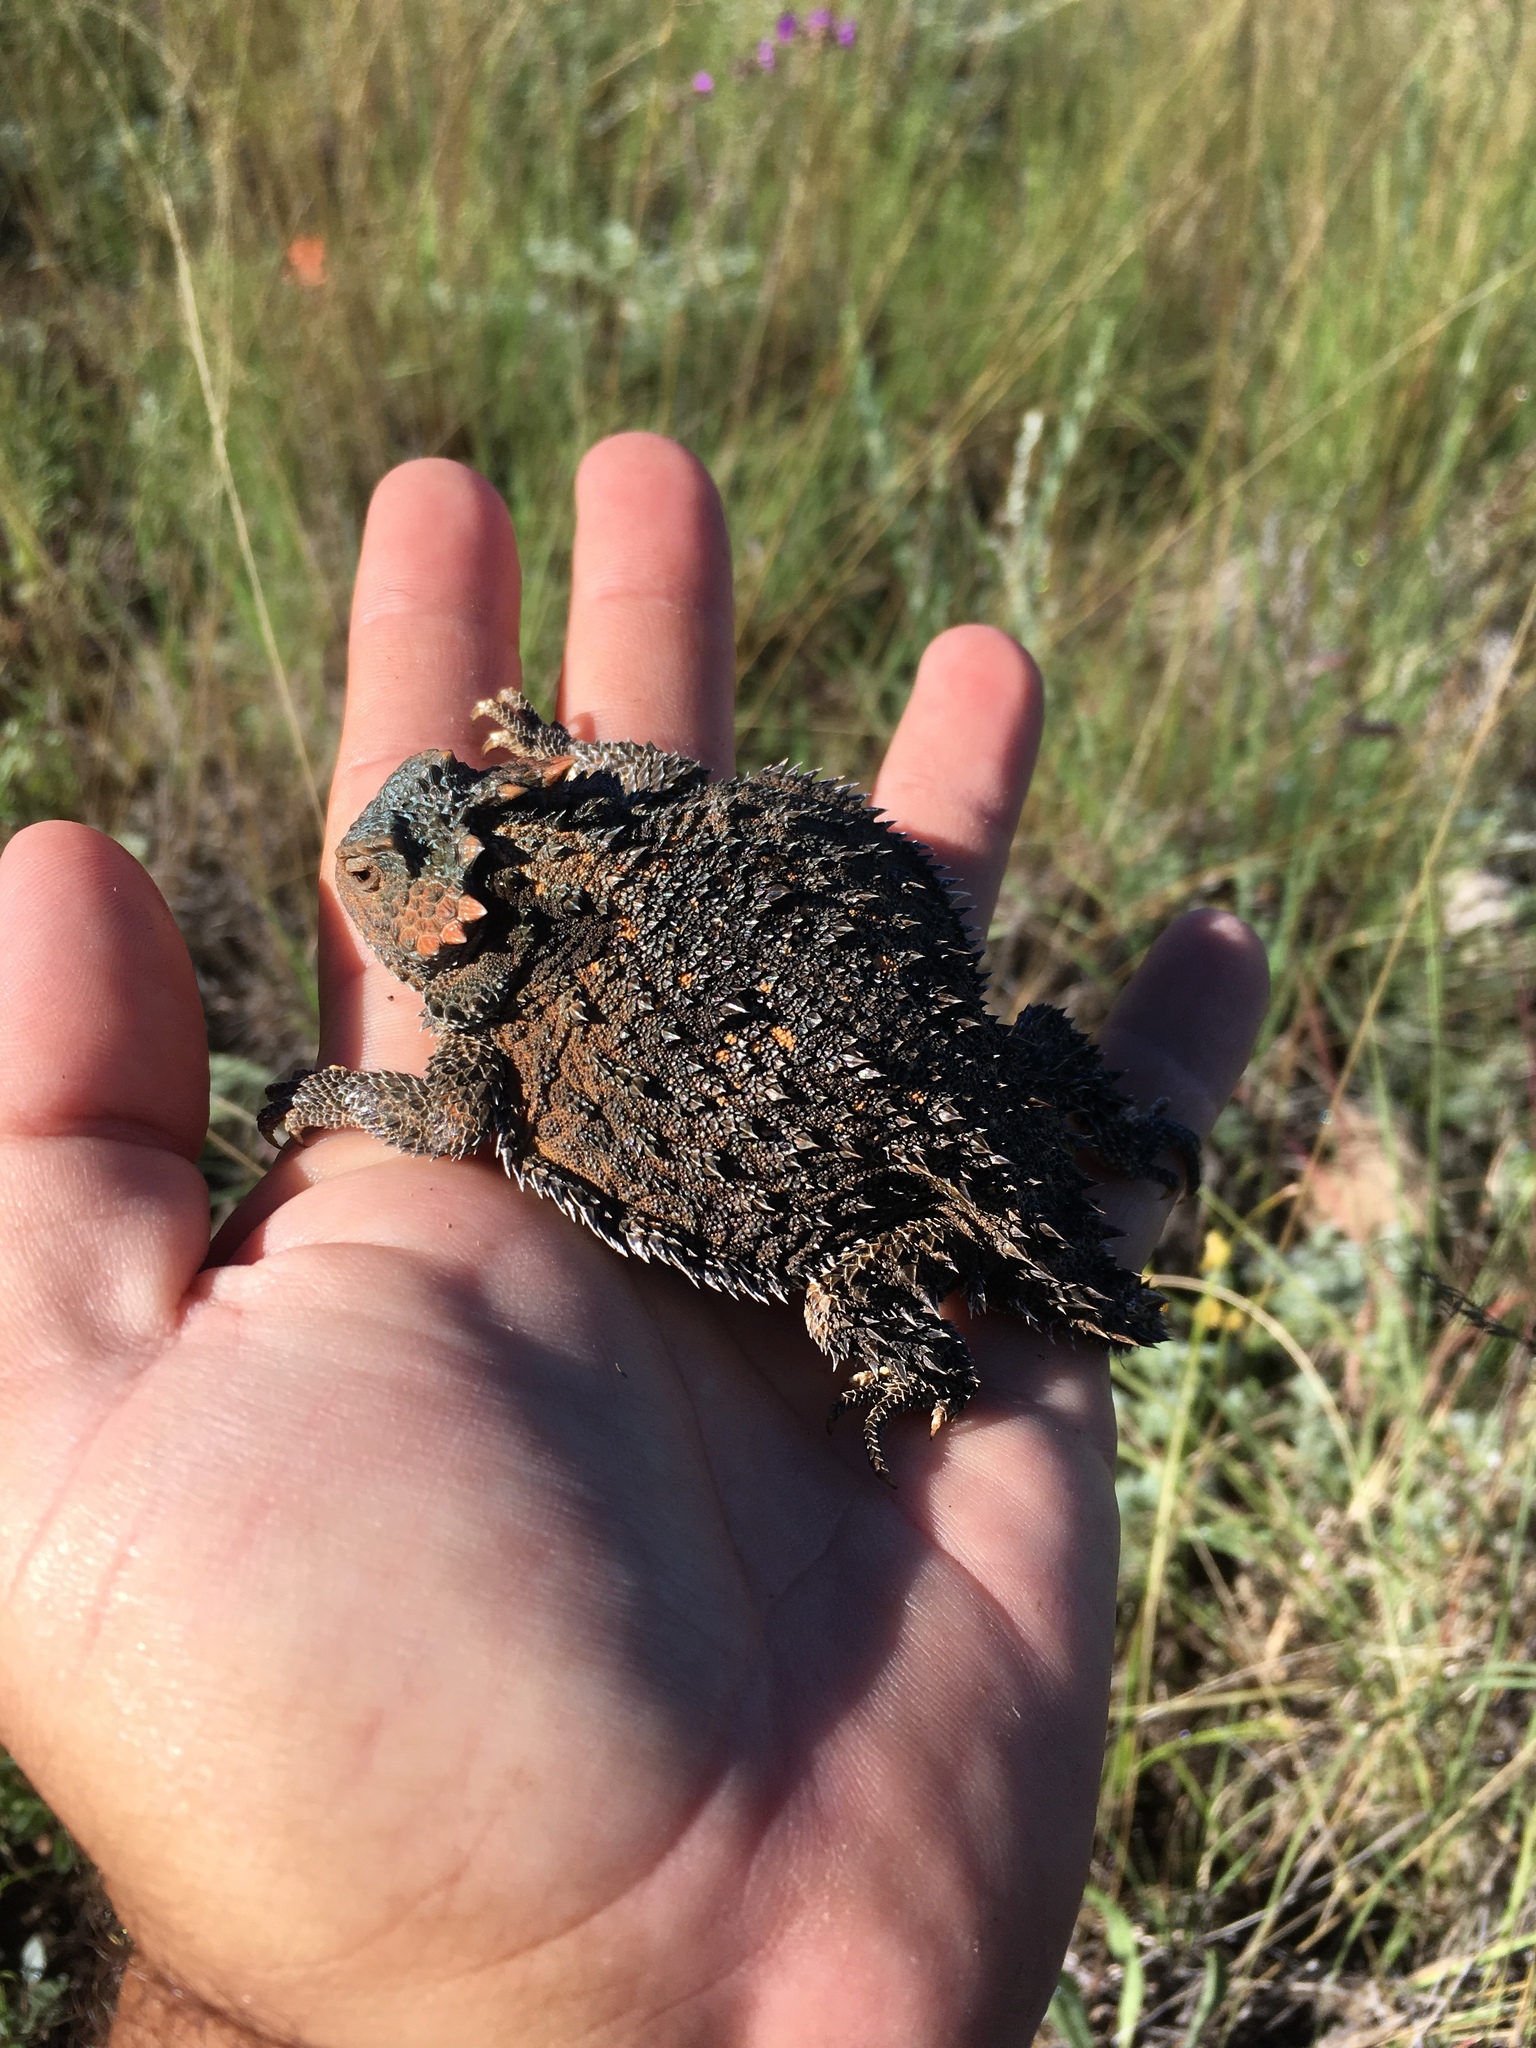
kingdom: Animalia
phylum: Chordata
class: Squamata
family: Phrynosomatidae
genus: Phrynosoma
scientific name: Phrynosoma hernandesi
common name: Greater short-horned lizard
